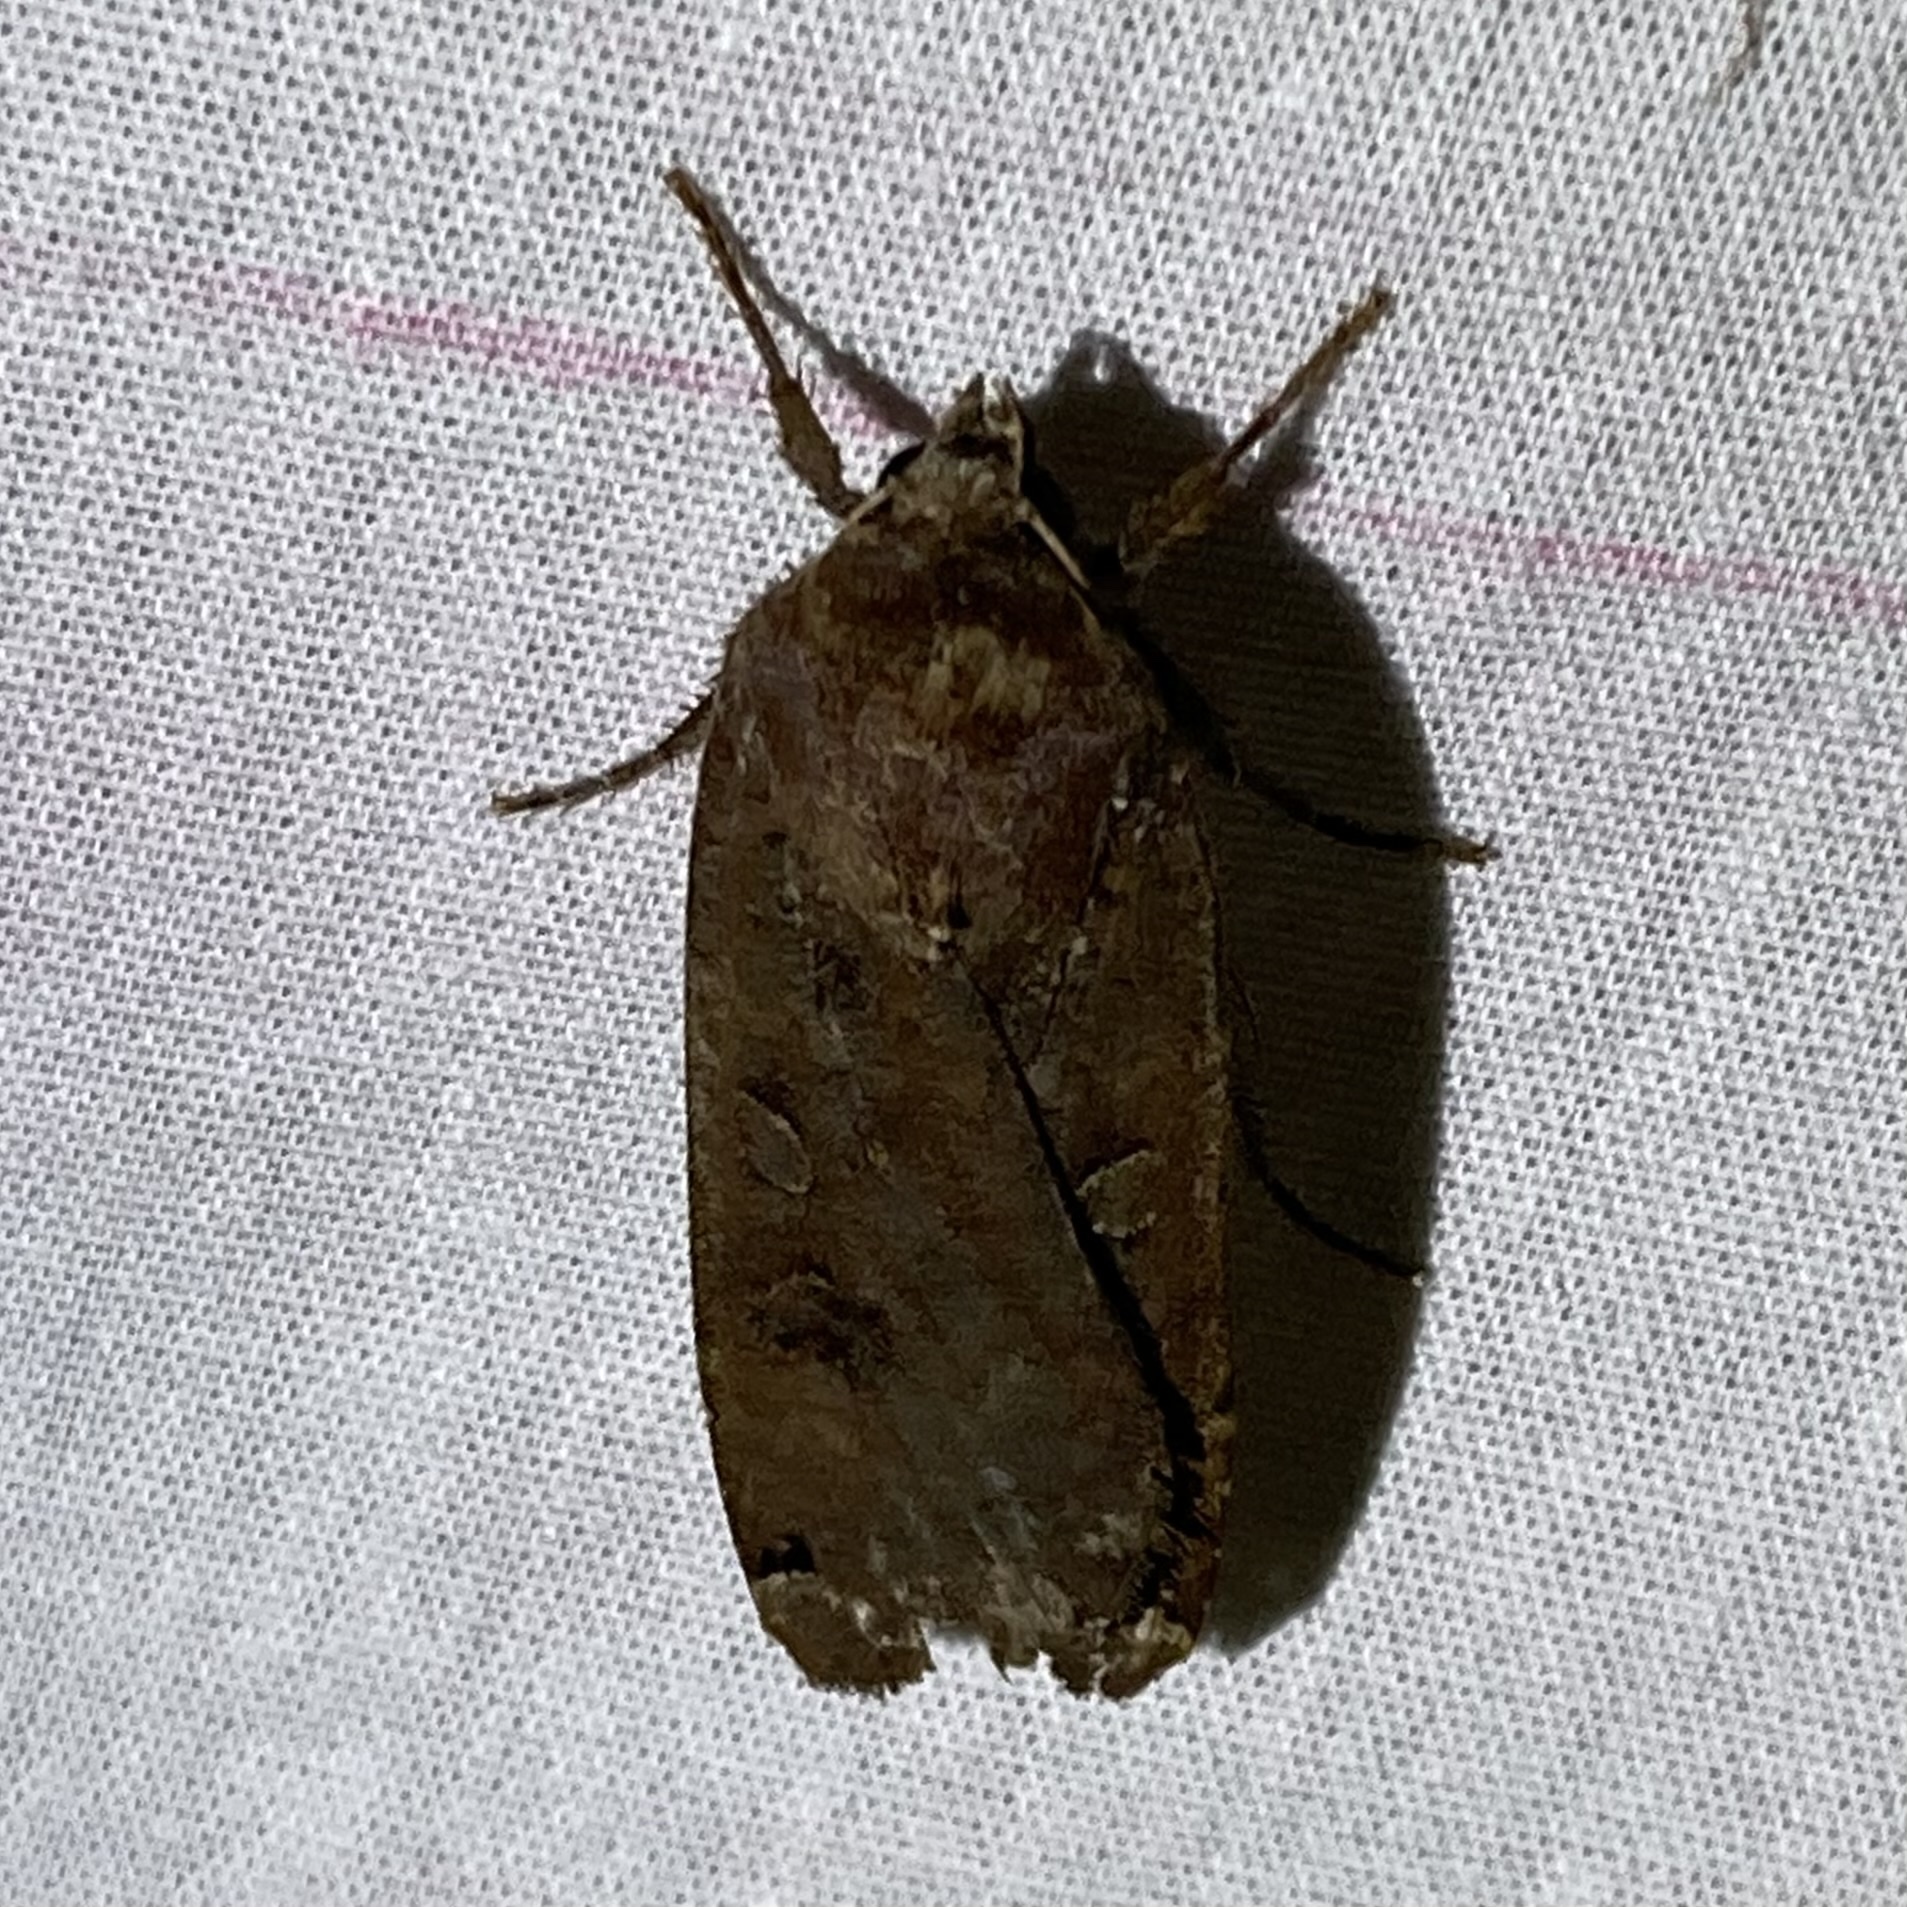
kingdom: Animalia
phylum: Arthropoda
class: Insecta
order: Lepidoptera
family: Noctuidae
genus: Noctua
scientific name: Noctua pronuba
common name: Large yellow underwing
